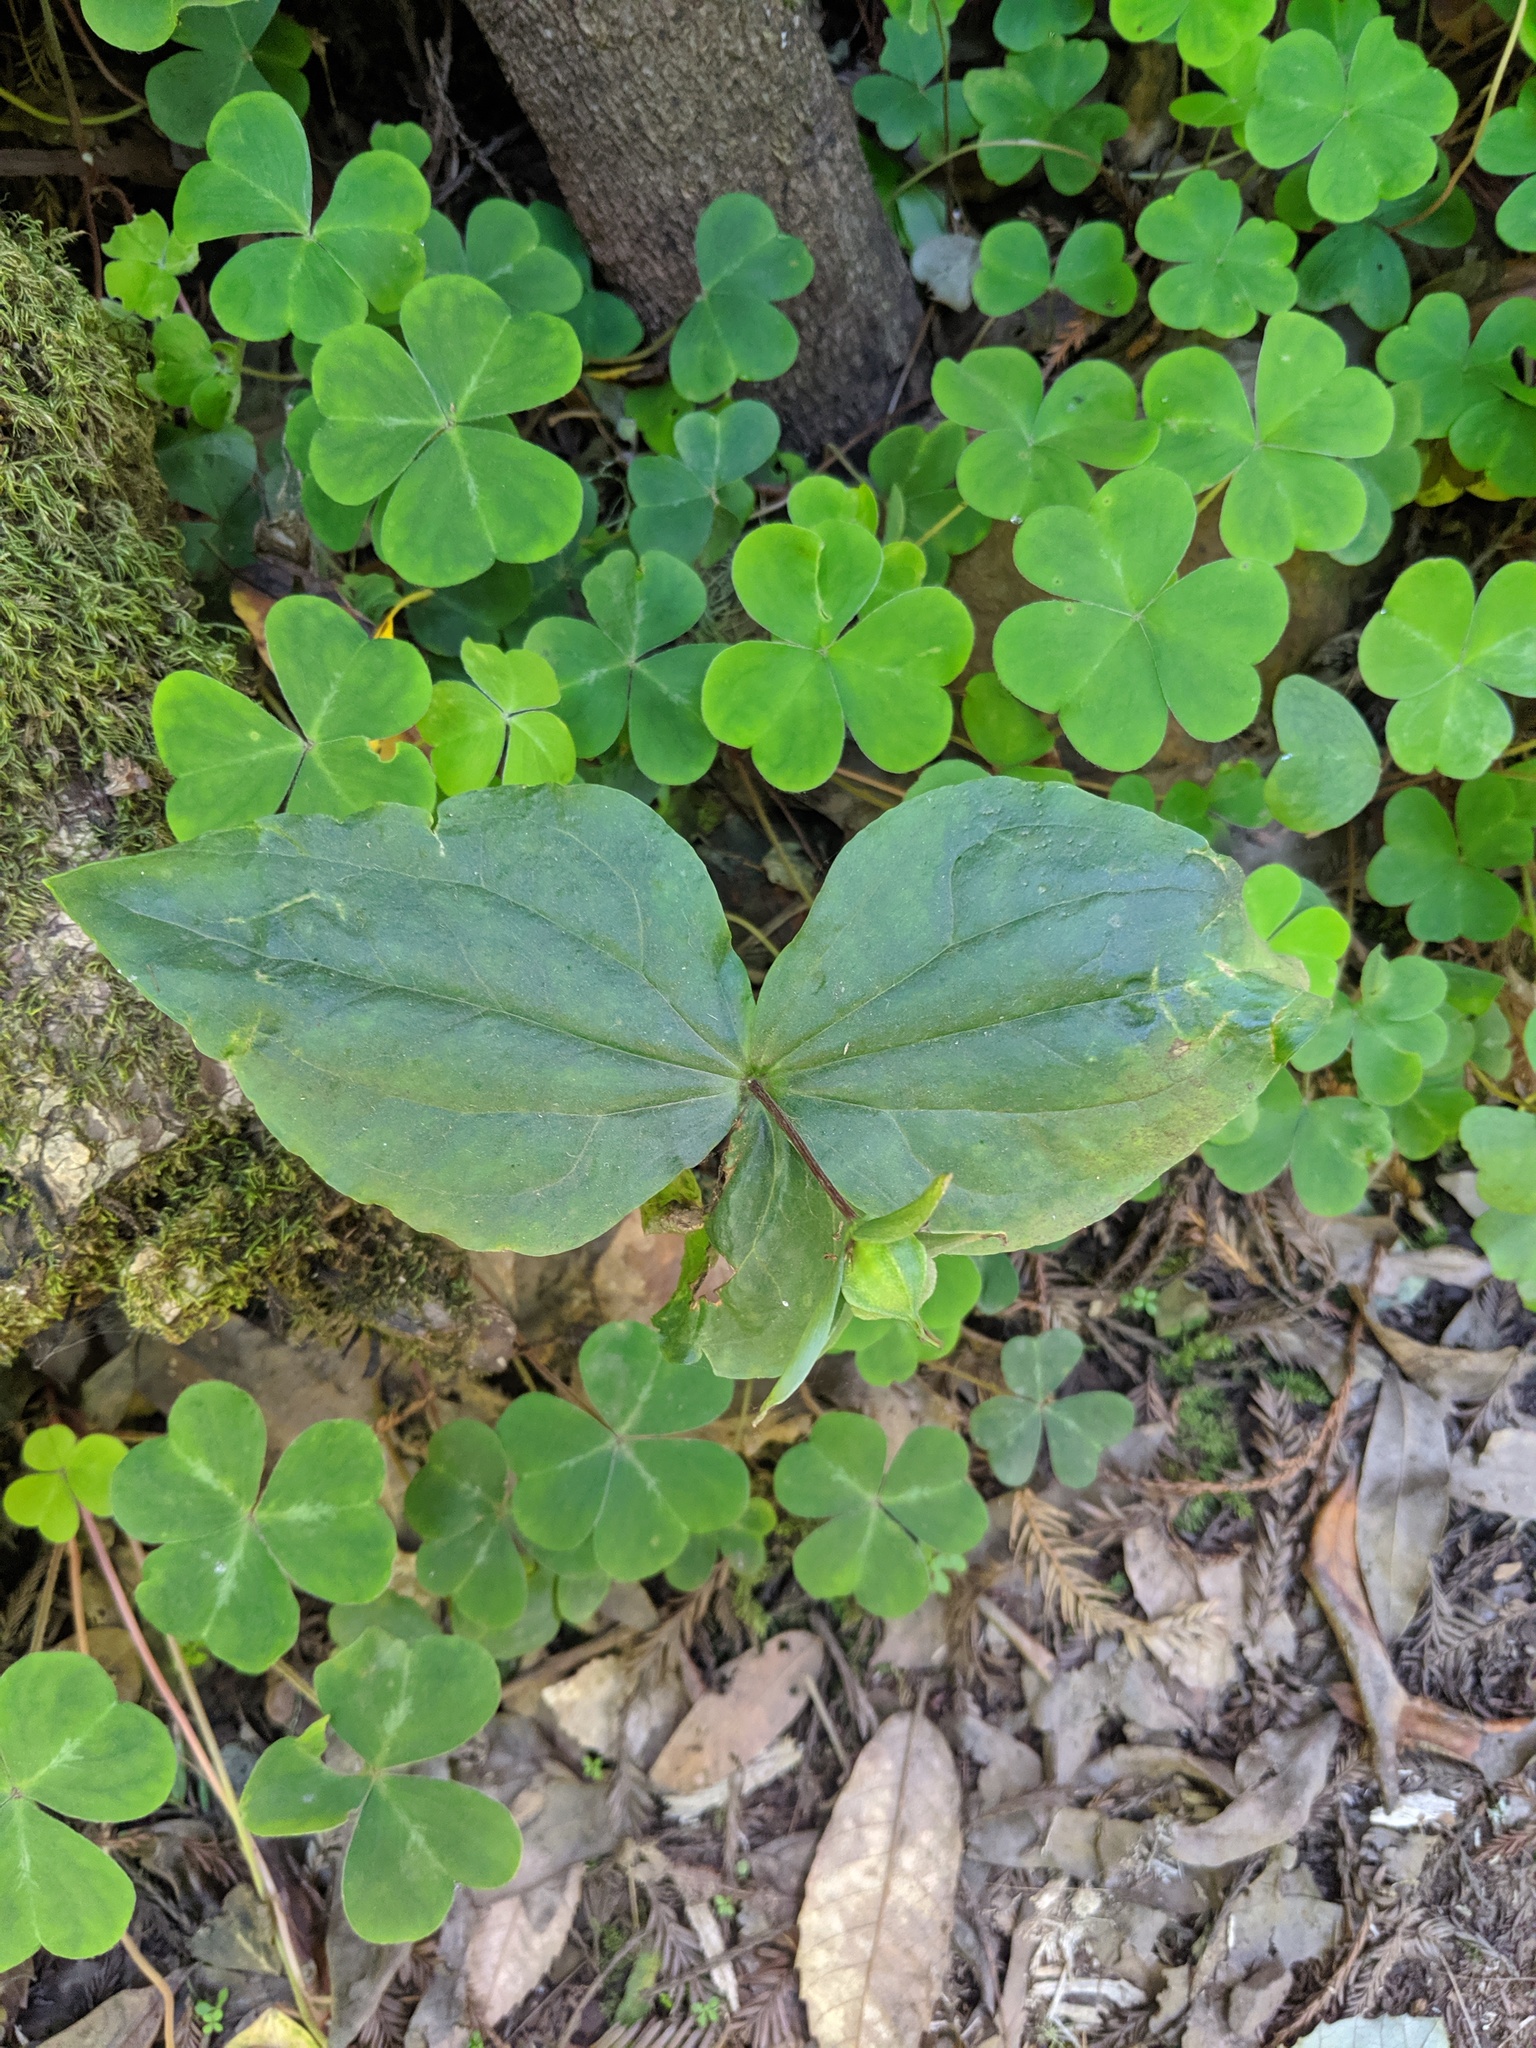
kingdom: Plantae
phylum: Tracheophyta
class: Liliopsida
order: Liliales
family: Melanthiaceae
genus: Trillium
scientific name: Trillium ovatum
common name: Pacific trillium
